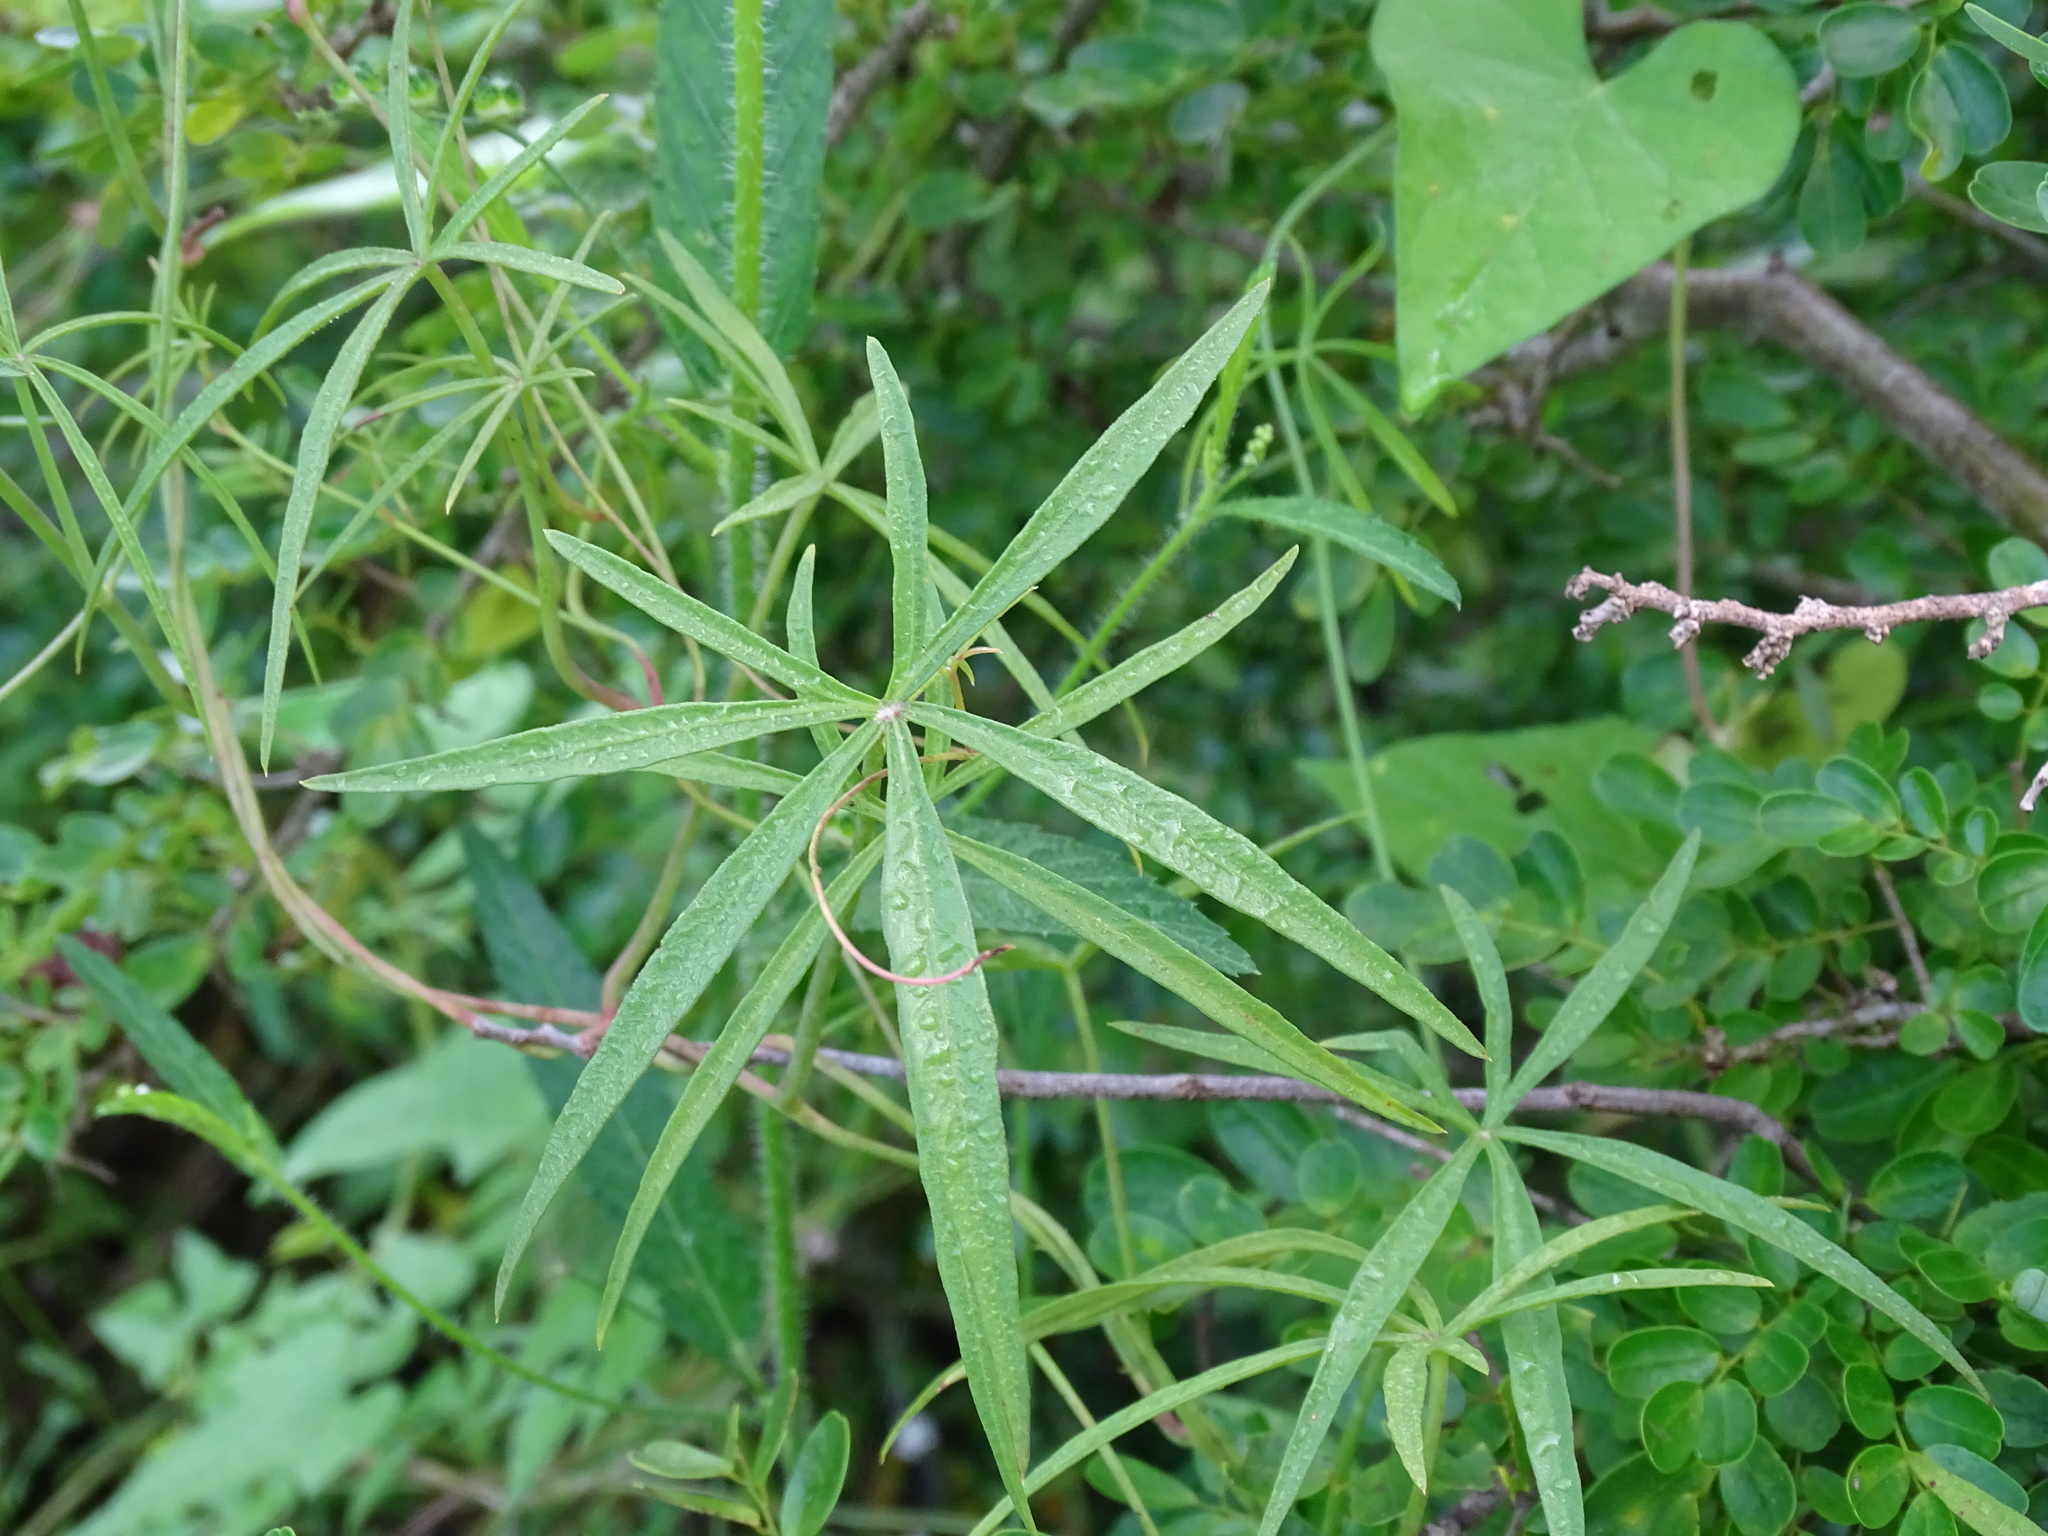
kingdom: Plantae
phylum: Tracheophyta
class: Magnoliopsida
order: Solanales
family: Convolvulaceae
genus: Ipomoea
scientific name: Ipomoea sororia
